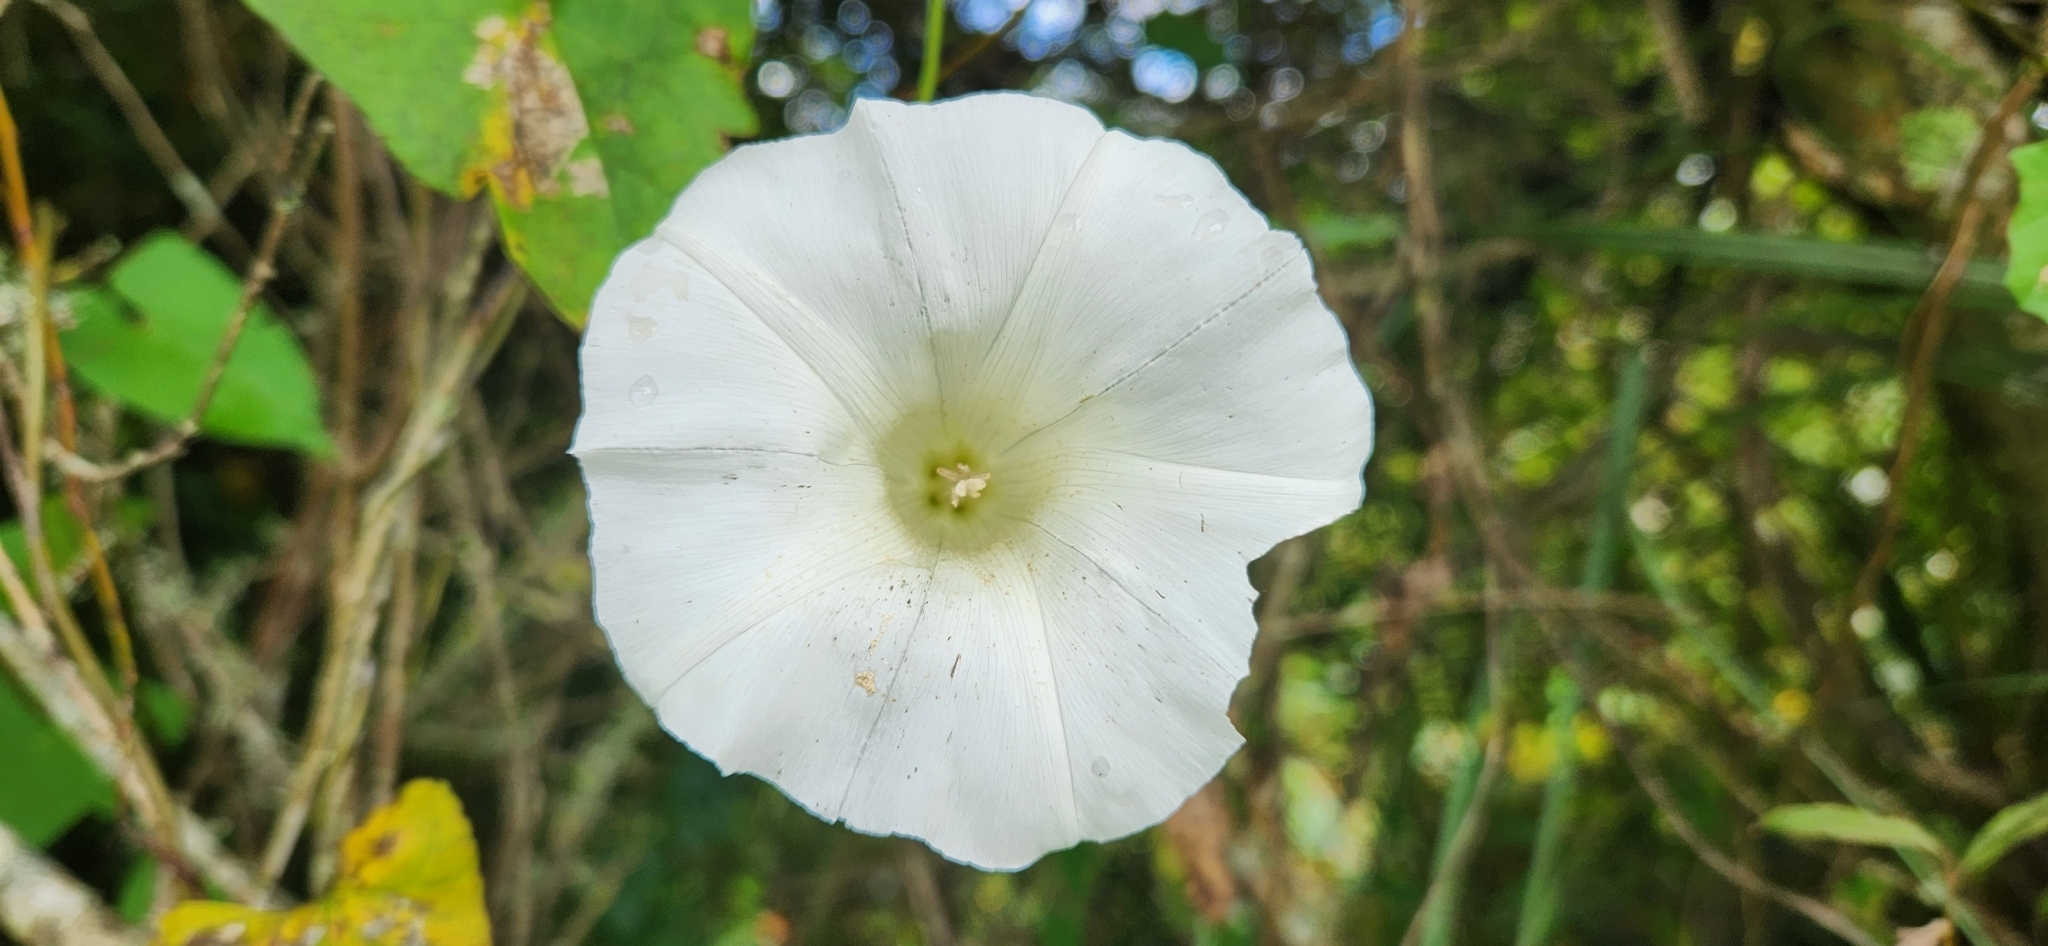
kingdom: Plantae
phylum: Tracheophyta
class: Magnoliopsida
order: Solanales
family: Convolvulaceae
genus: Calystegia
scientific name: Calystegia silvatica
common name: Large bindweed
